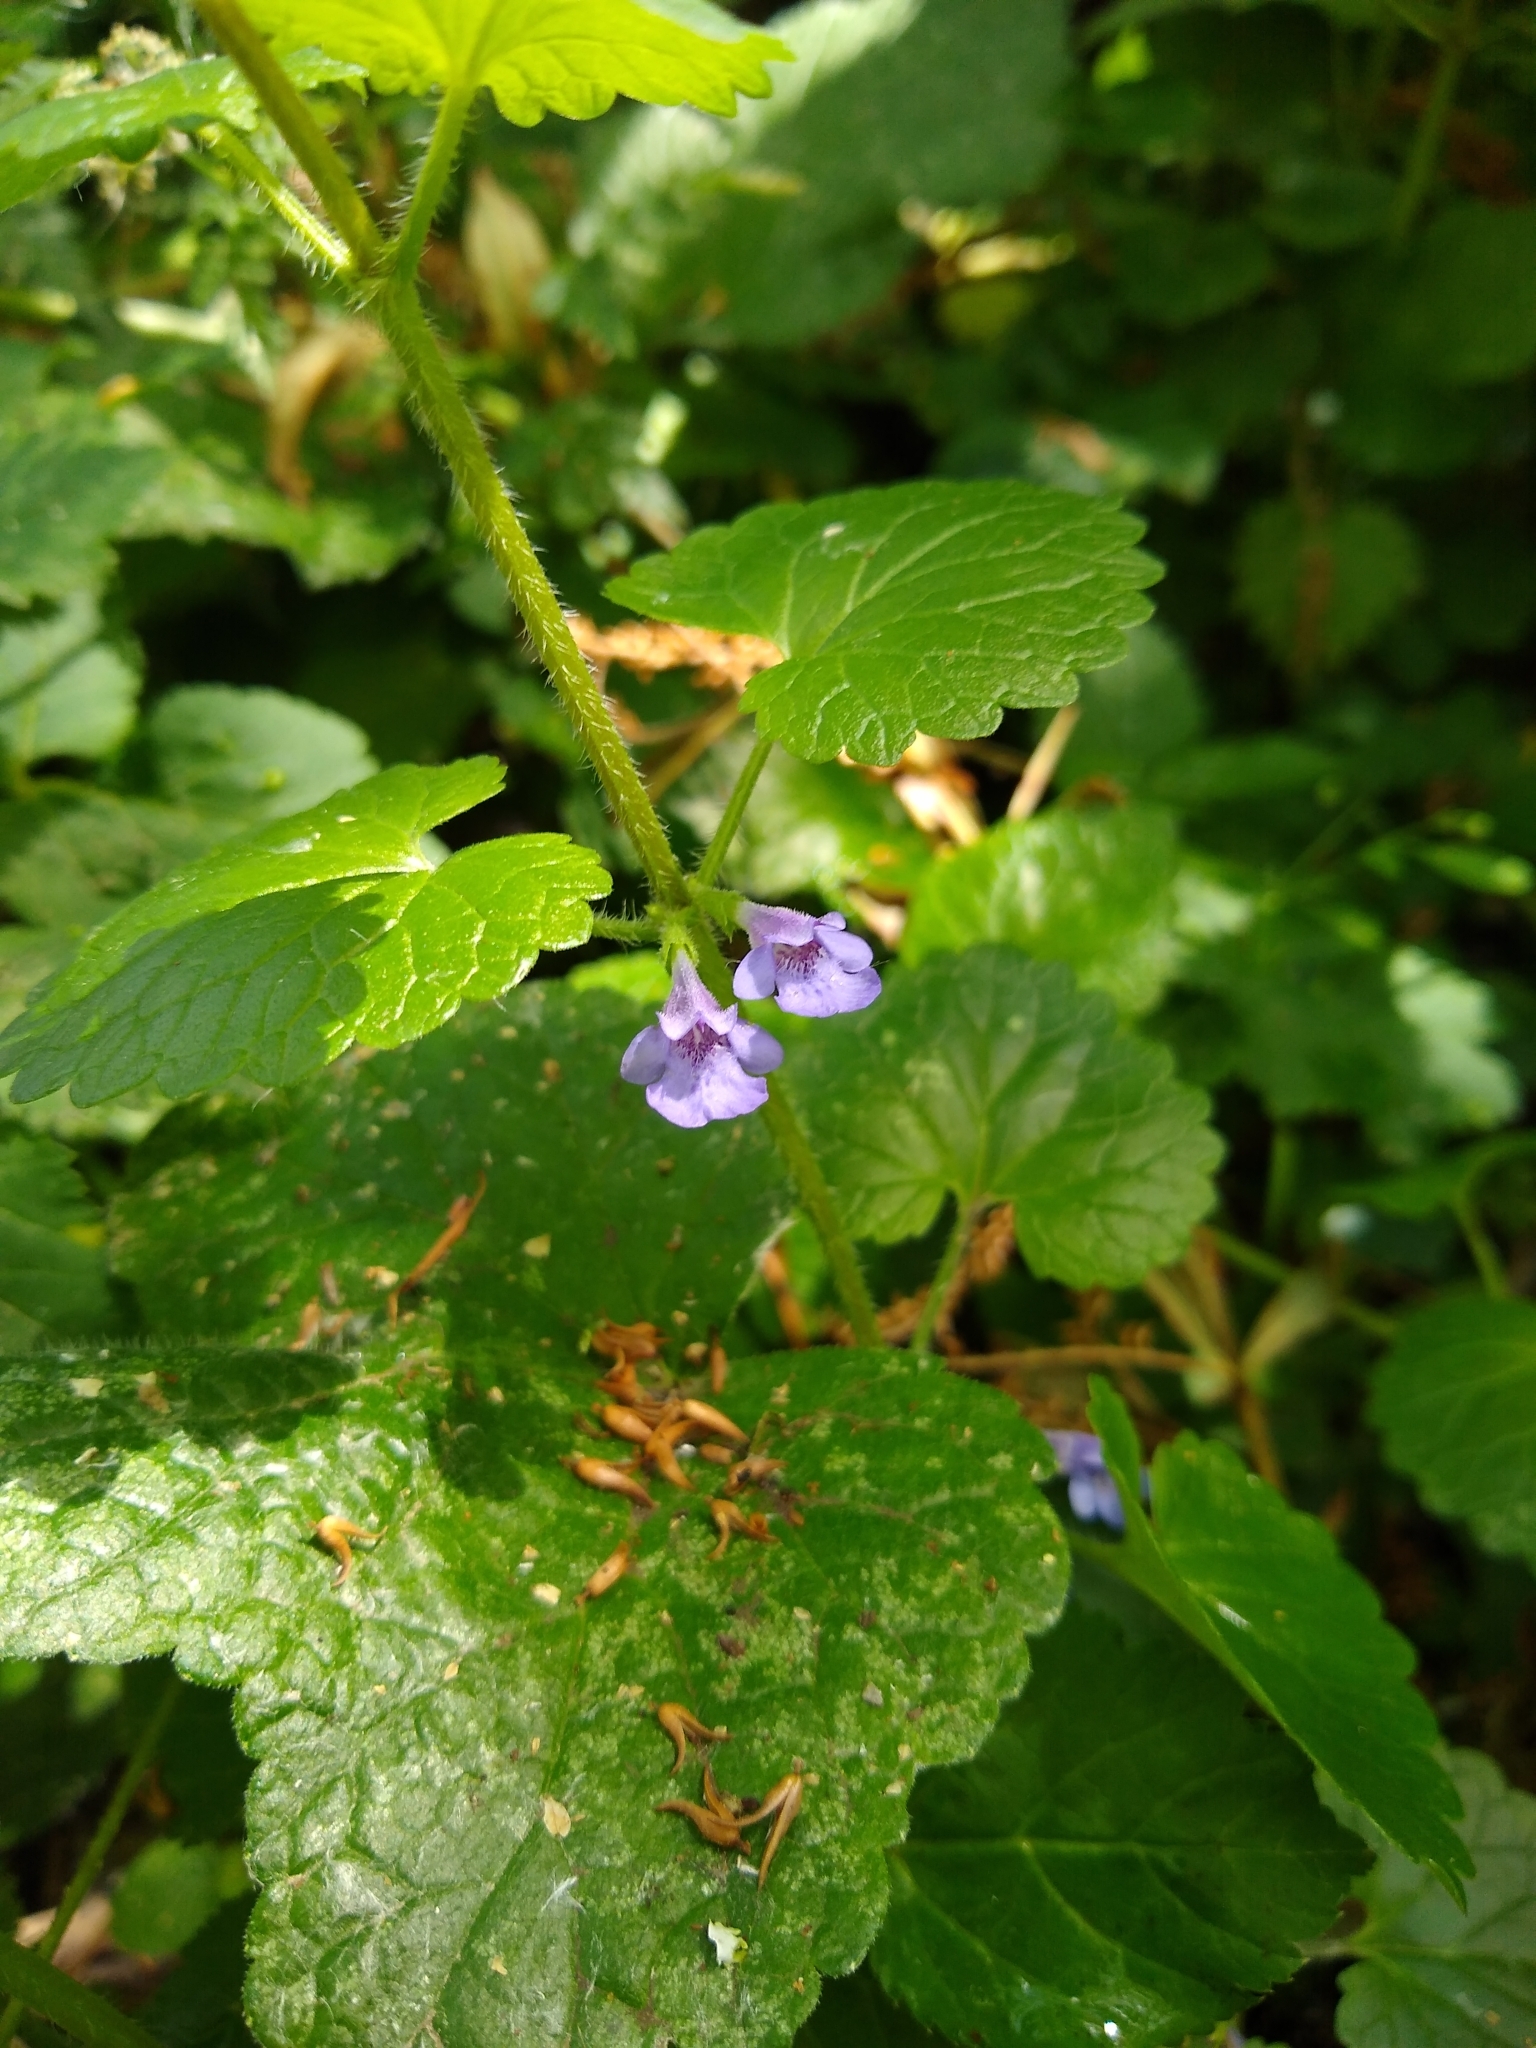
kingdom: Plantae
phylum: Tracheophyta
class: Magnoliopsida
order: Lamiales
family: Lamiaceae
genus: Glechoma
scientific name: Glechoma hederacea
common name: Ground ivy
